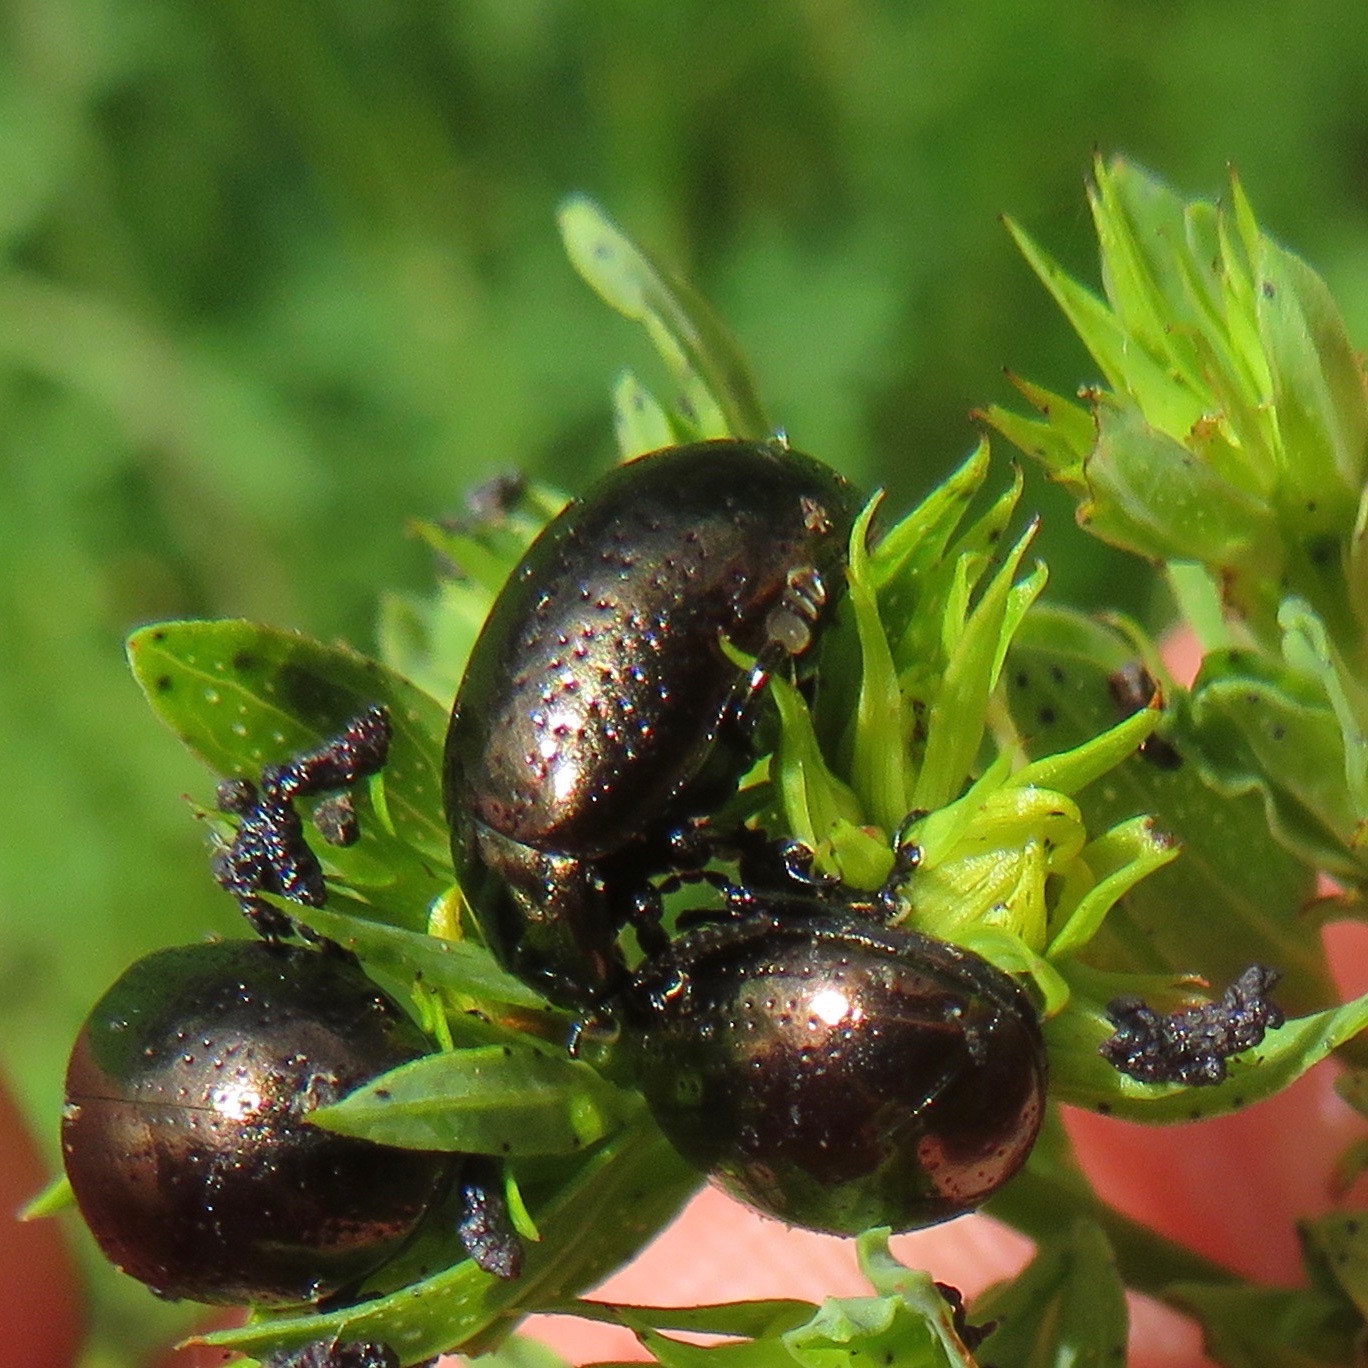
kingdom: Animalia
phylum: Arthropoda
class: Insecta
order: Coleoptera
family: Chrysomelidae
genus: Chrysolina
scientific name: Chrysolina hyperici
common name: St. johnswort beetle
